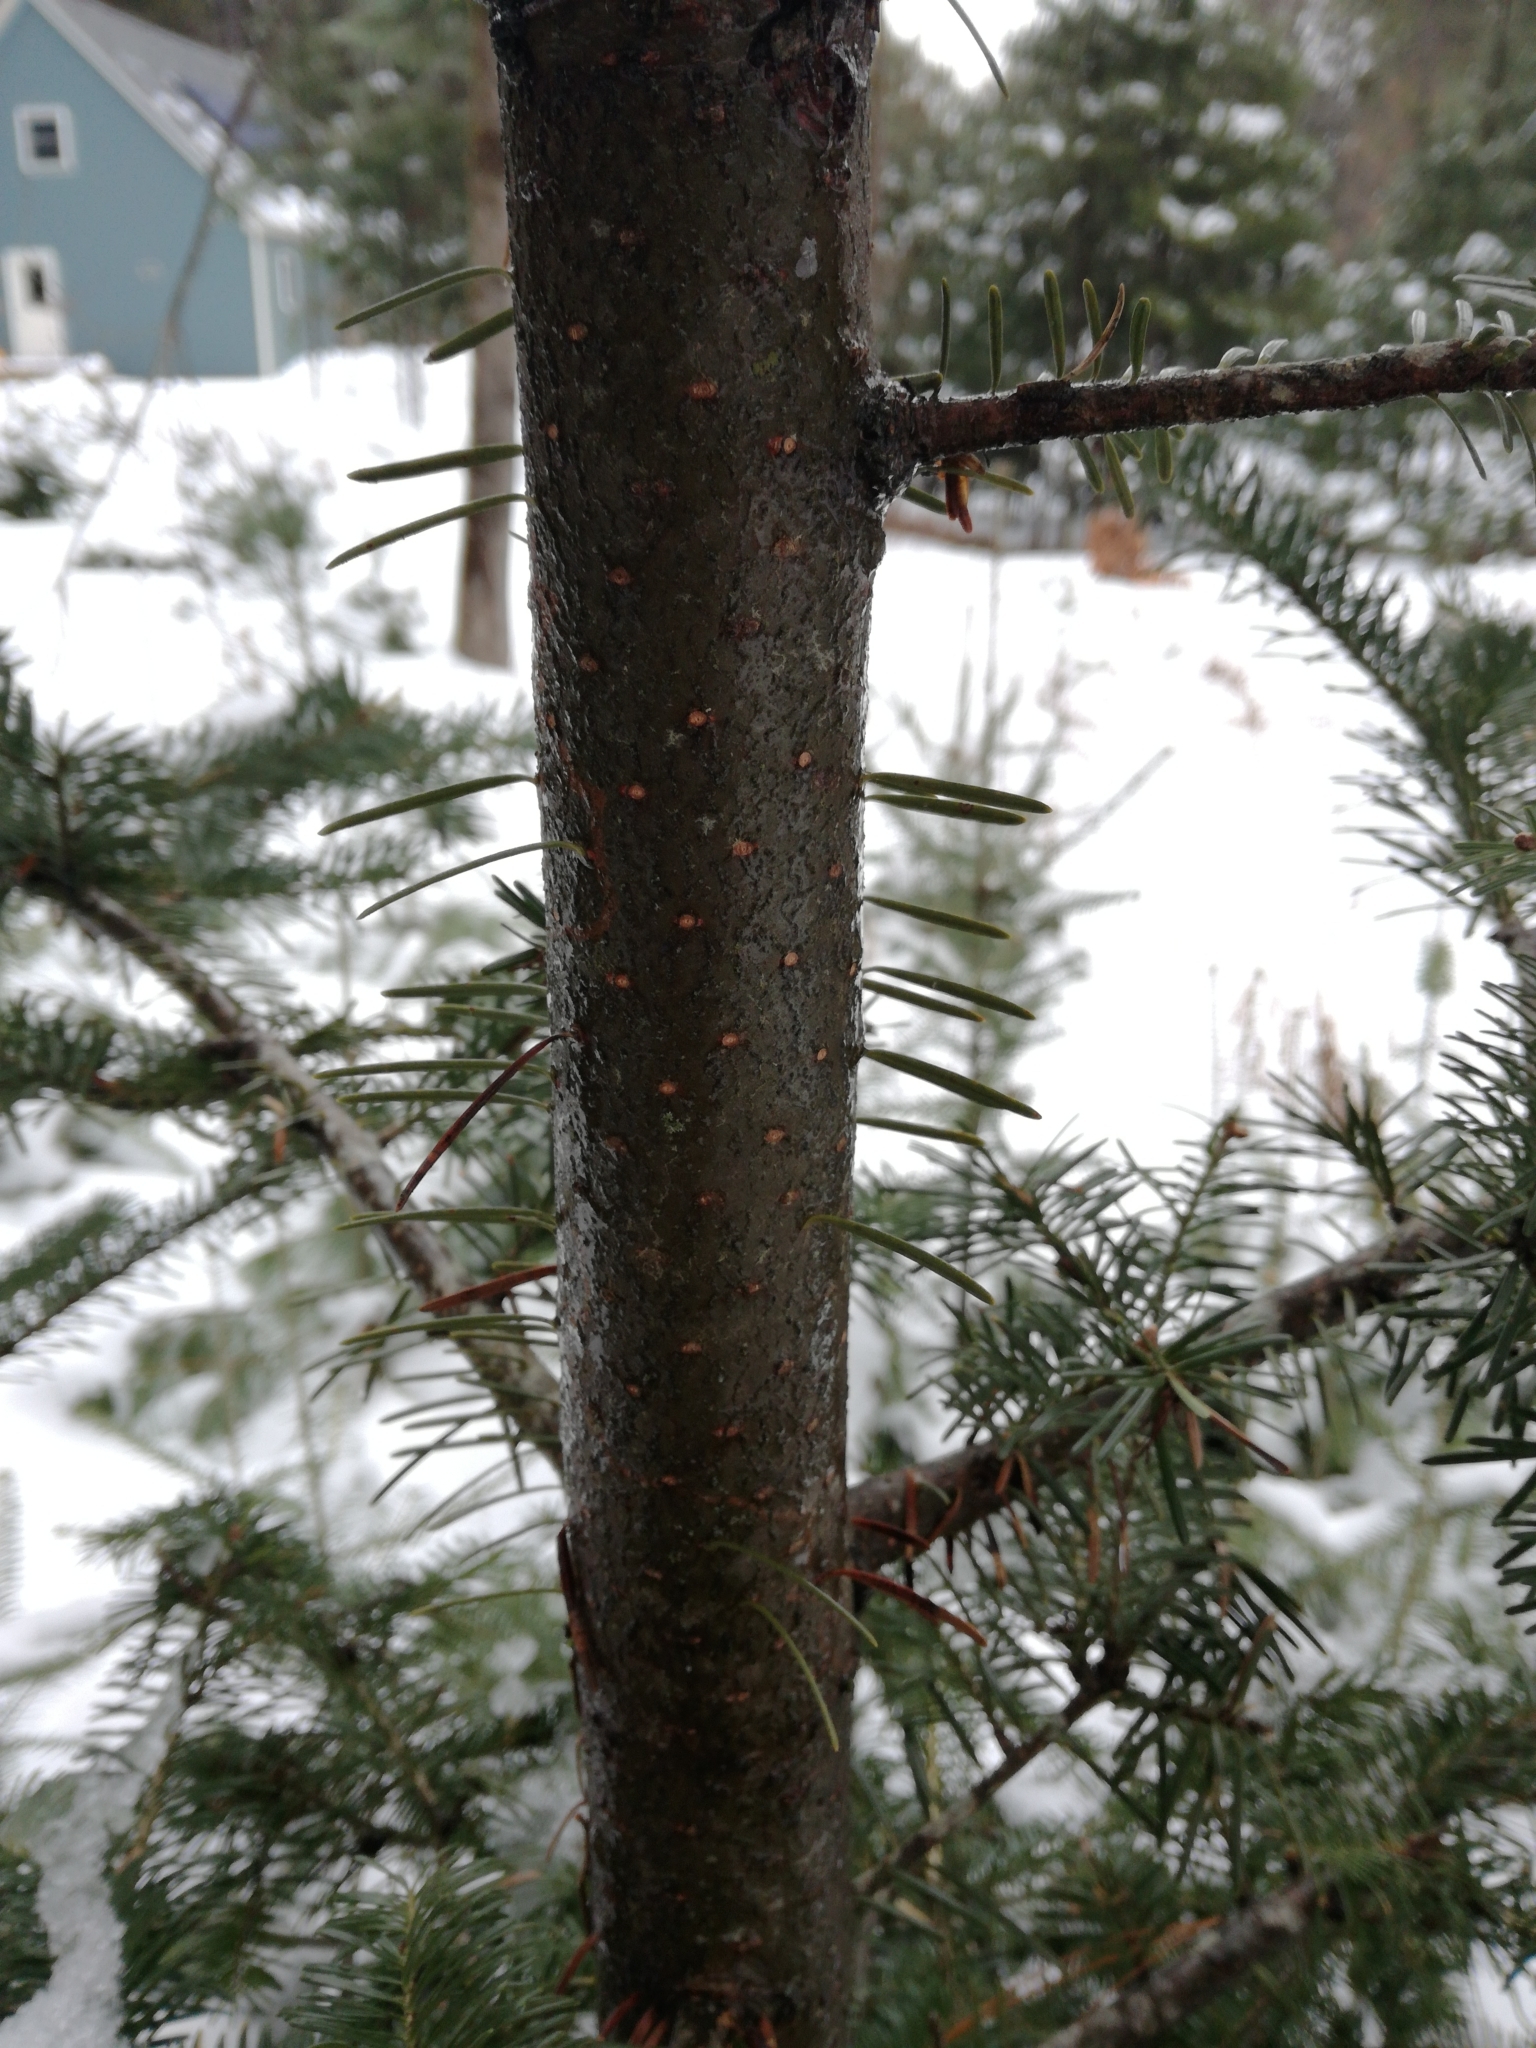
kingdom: Plantae
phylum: Tracheophyta
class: Pinopsida
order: Pinales
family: Pinaceae
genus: Abies
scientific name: Abies balsamea
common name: Balsam fir
